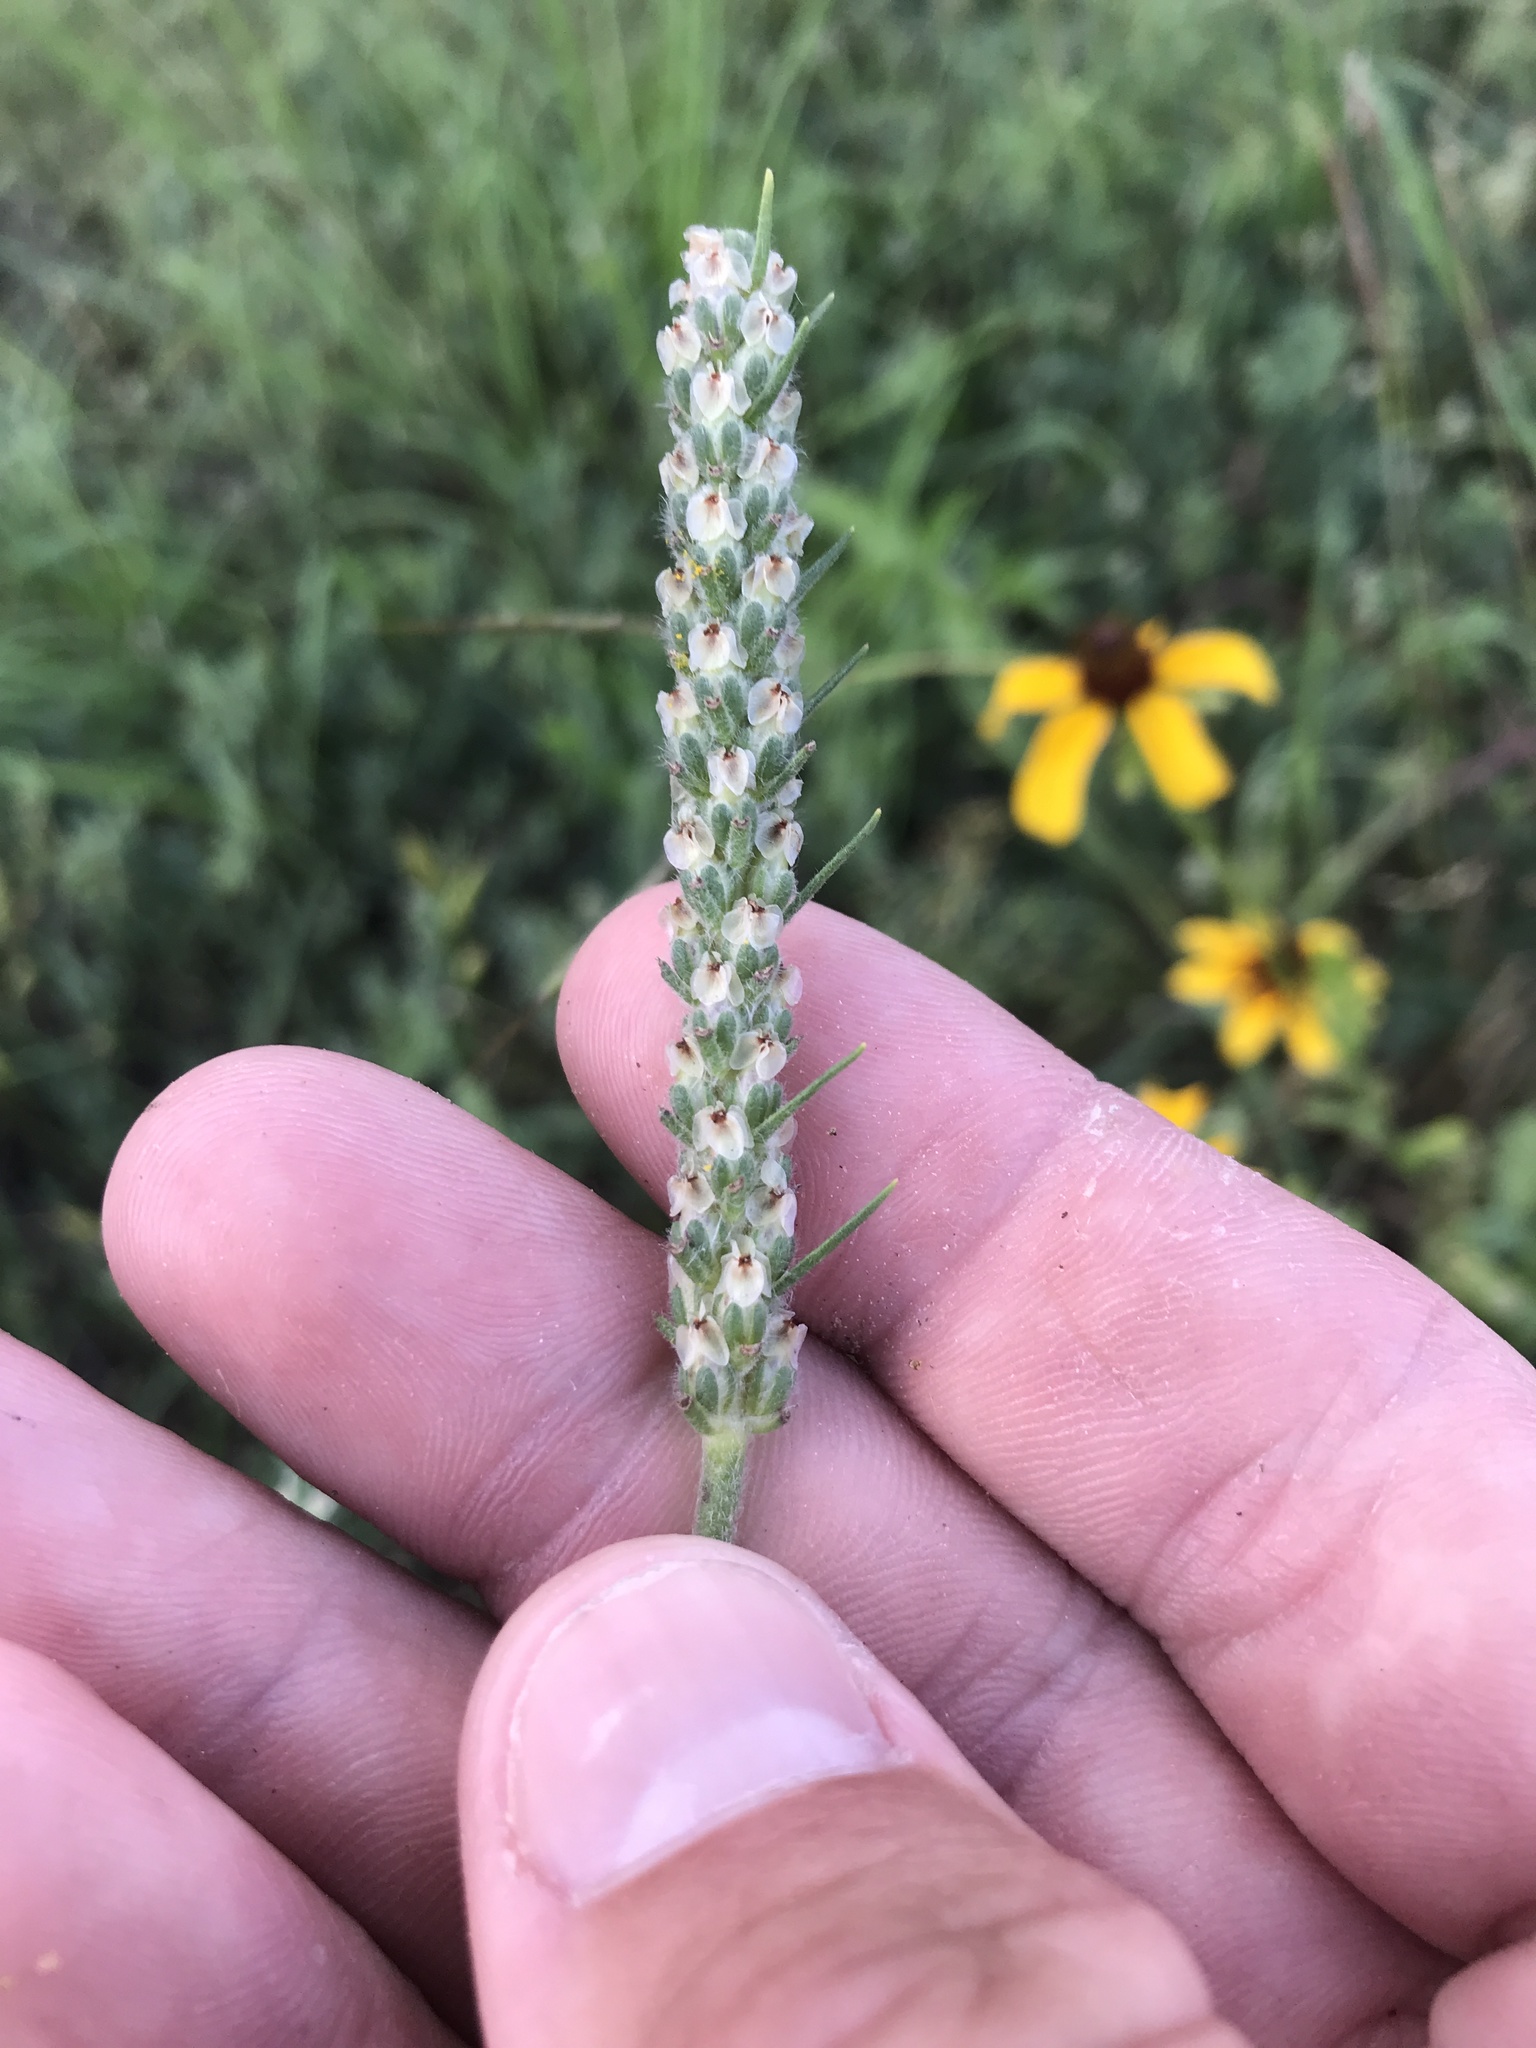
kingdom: Plantae
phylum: Tracheophyta
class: Magnoliopsida
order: Lamiales
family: Plantaginaceae
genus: Plantago
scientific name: Plantago aristata
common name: Bracted plantain
